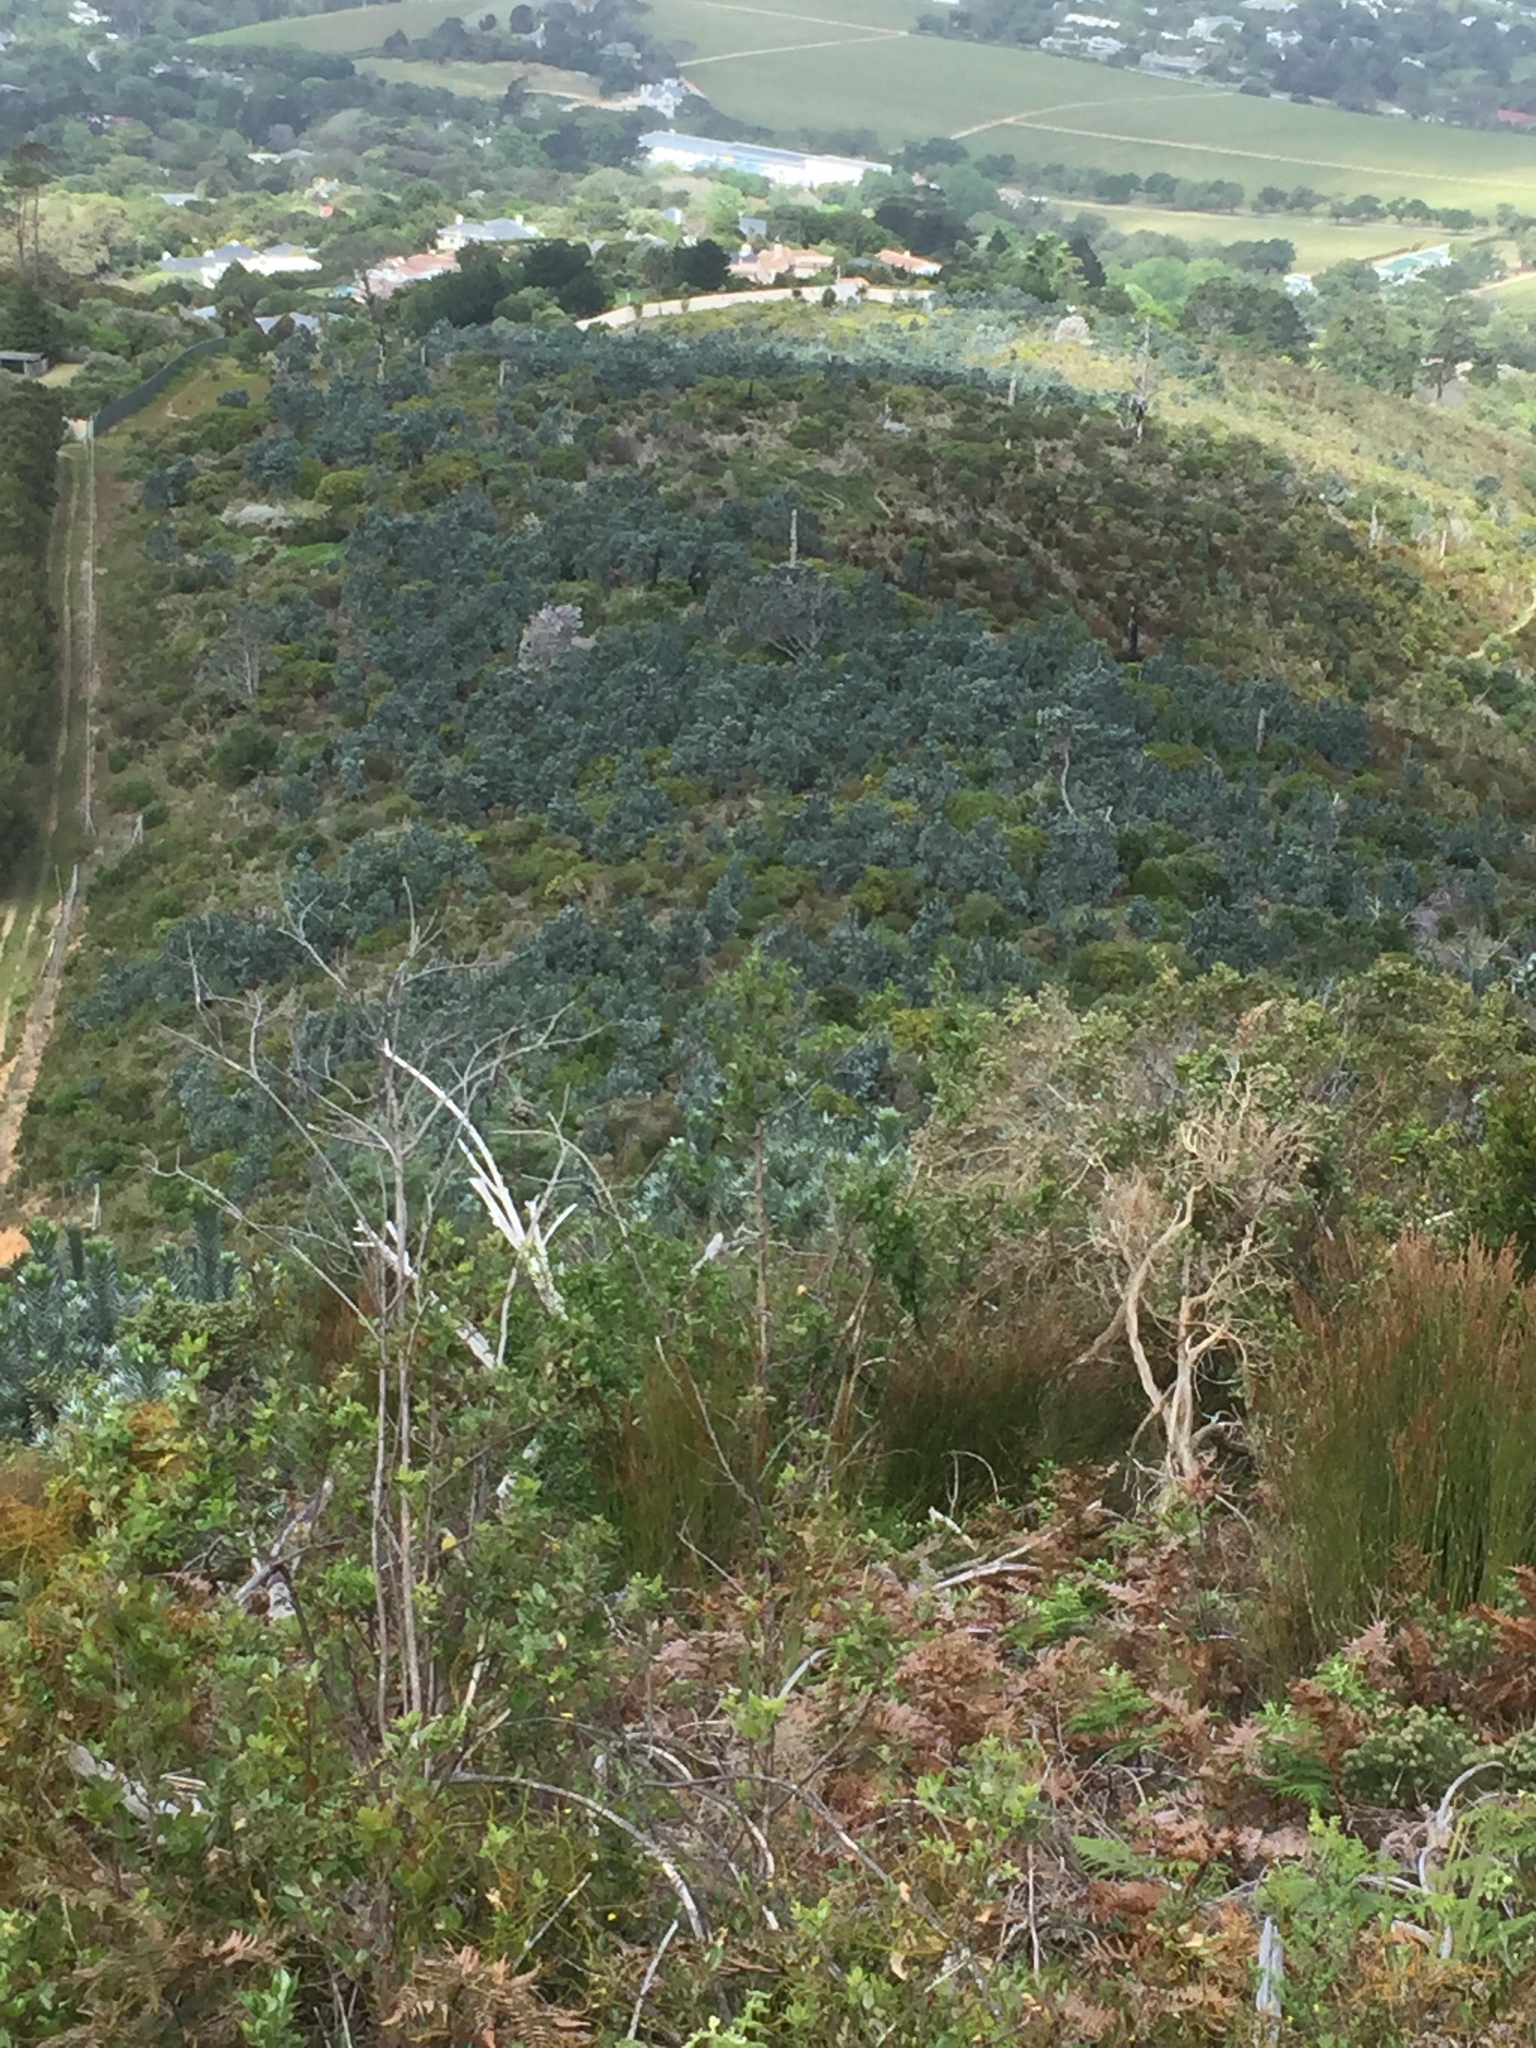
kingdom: Plantae
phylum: Tracheophyta
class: Magnoliopsida
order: Proteales
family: Proteaceae
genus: Leucadendron
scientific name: Leucadendron argenteum
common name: Cape silver tree
